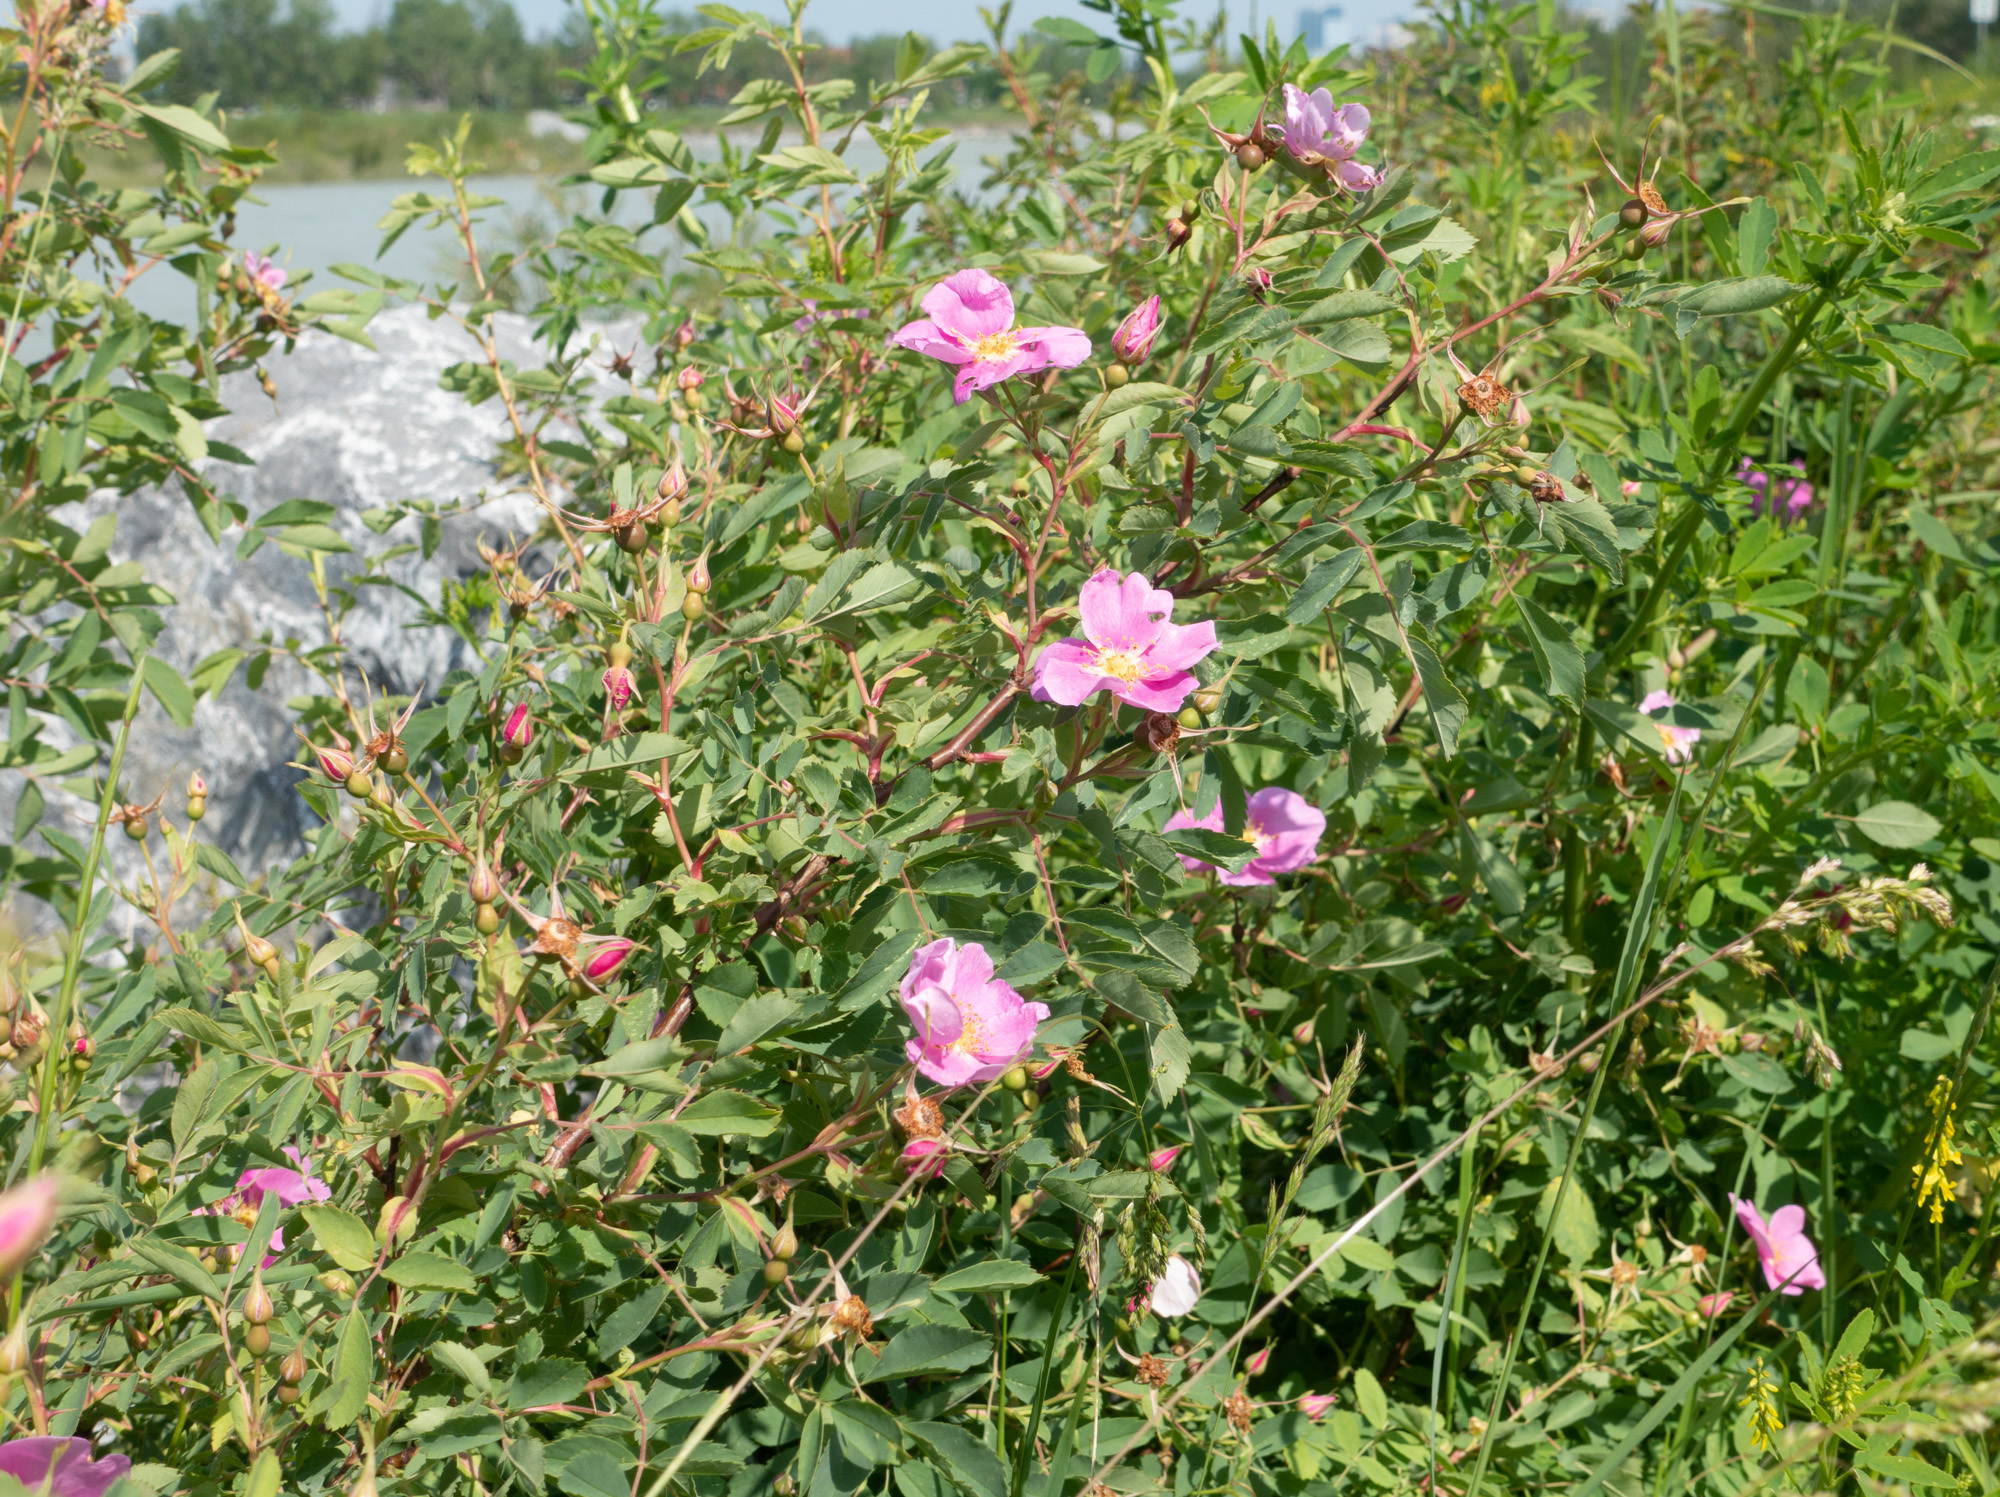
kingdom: Plantae
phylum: Tracheophyta
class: Magnoliopsida
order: Rosales
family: Rosaceae
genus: Rosa
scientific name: Rosa woodsii
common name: Woods's rose
